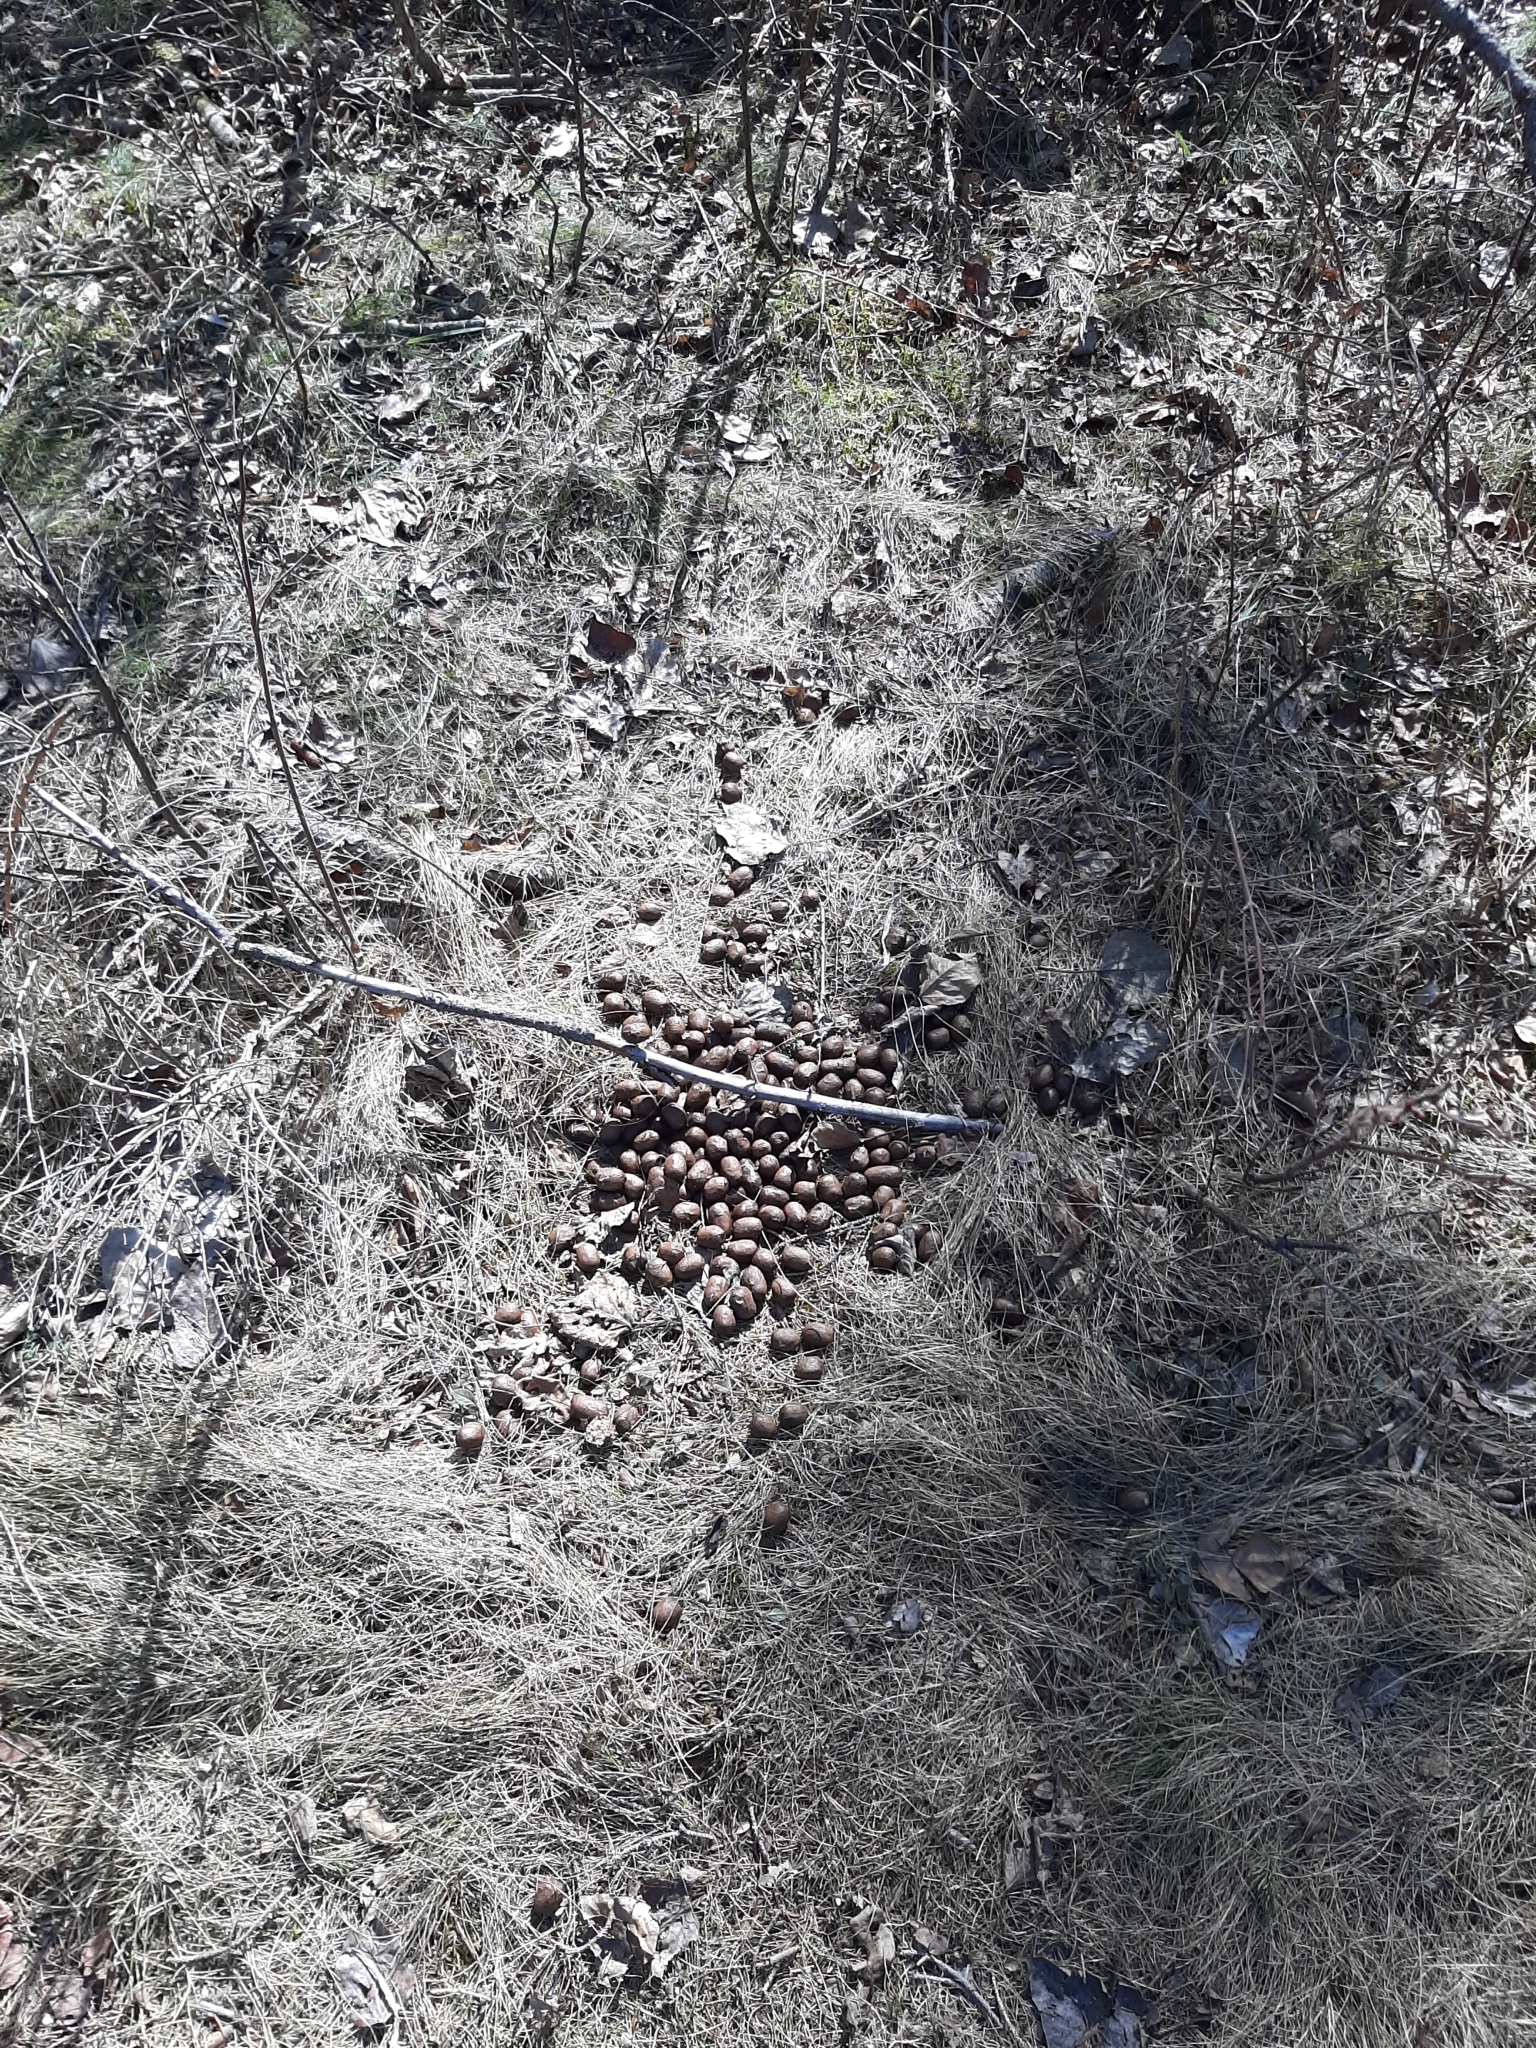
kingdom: Animalia
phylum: Chordata
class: Mammalia
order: Artiodactyla
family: Cervidae
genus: Alces
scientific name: Alces alces
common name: Moose
